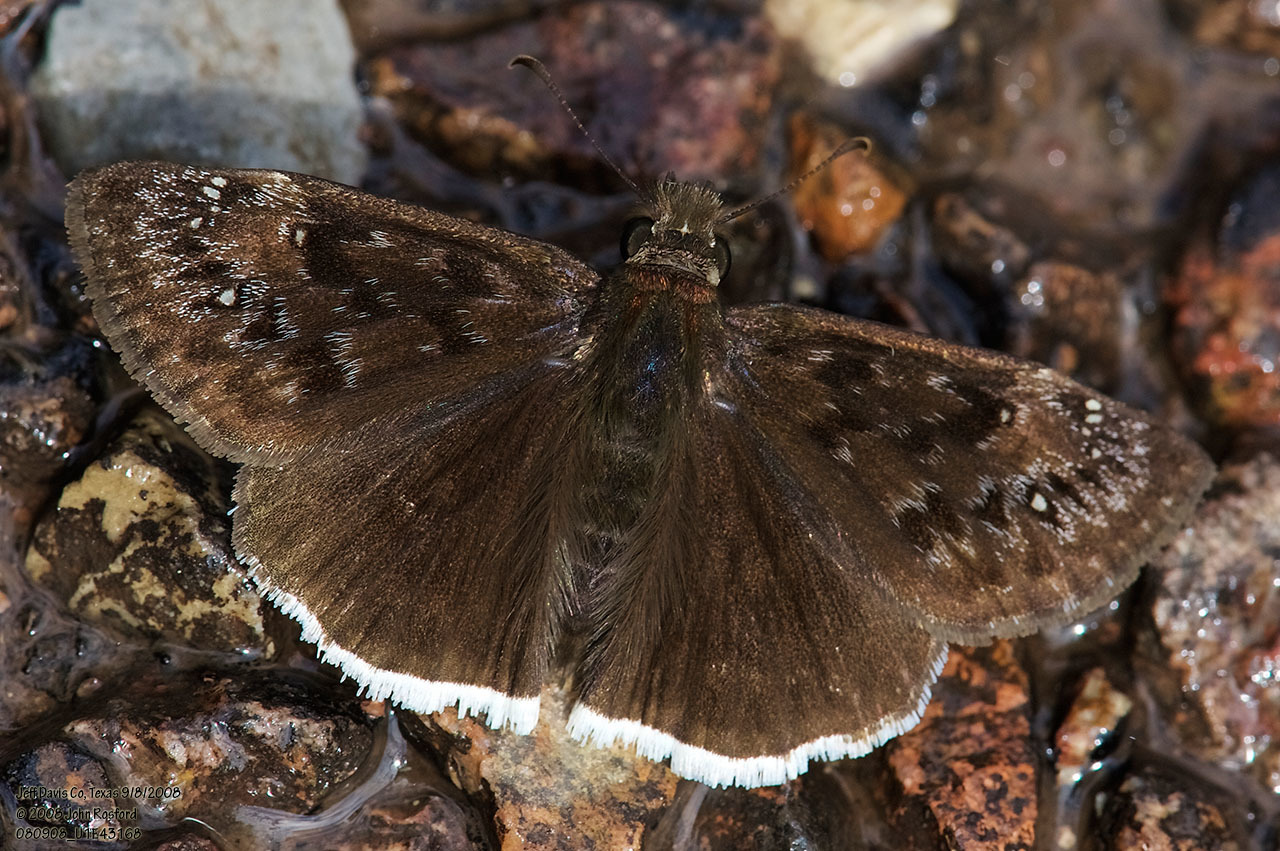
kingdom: Animalia
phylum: Arthropoda
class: Insecta
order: Lepidoptera
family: Hesperiidae
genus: Erynnis
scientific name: Erynnis tristis
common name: Mournful duskywing
